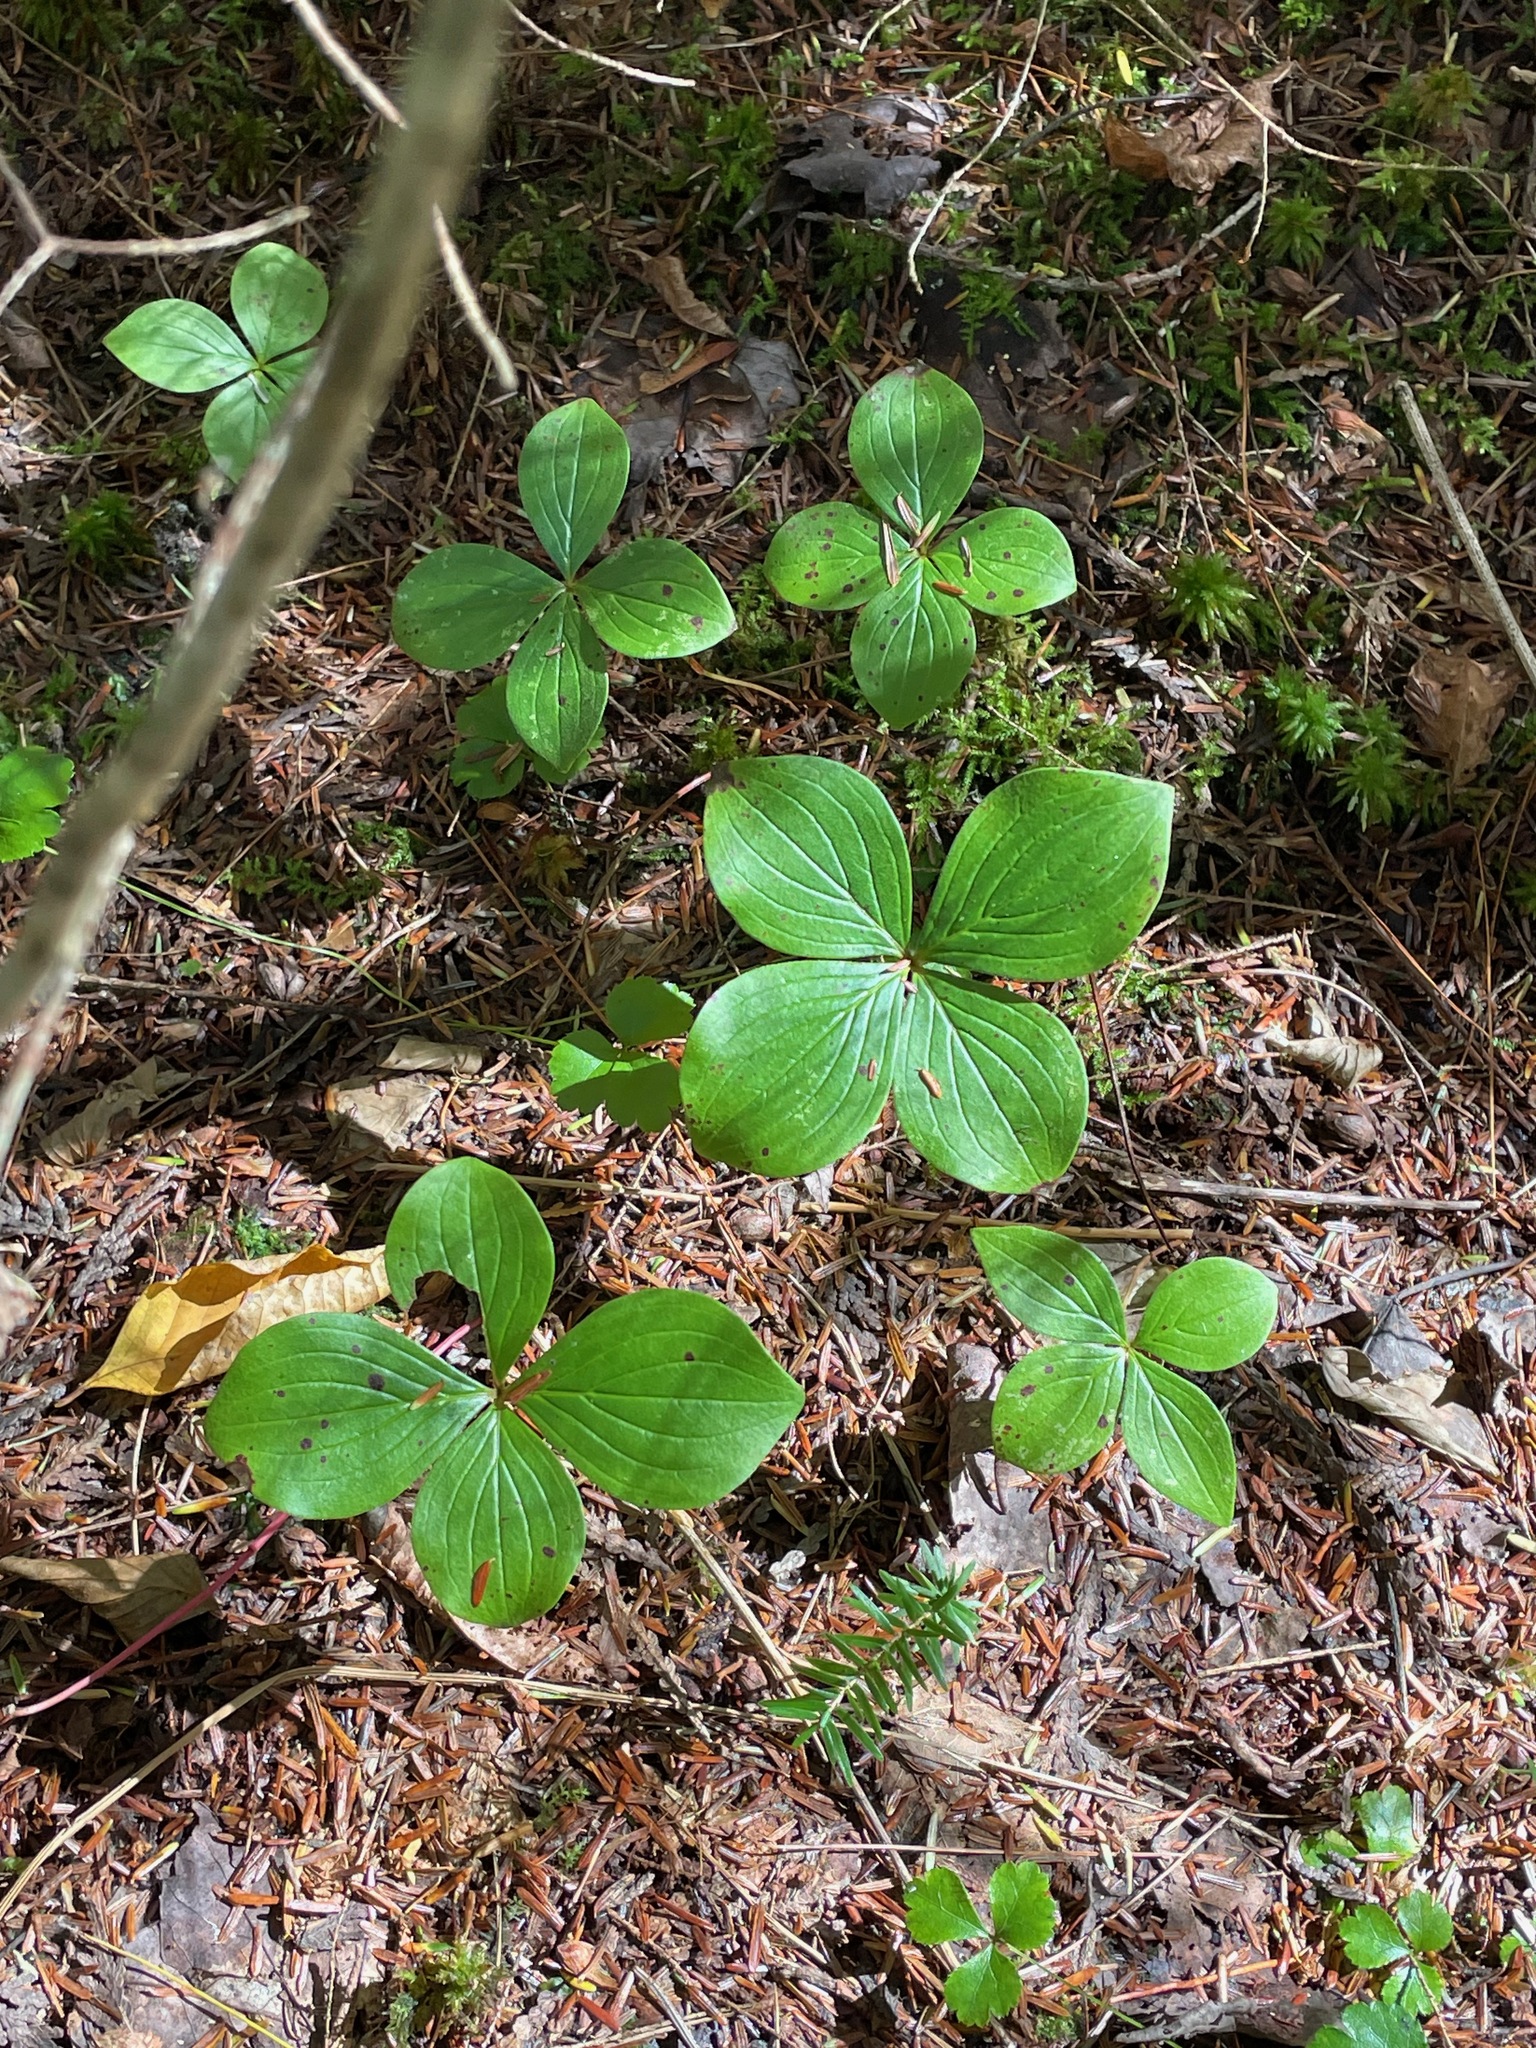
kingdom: Plantae
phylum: Tracheophyta
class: Magnoliopsida
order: Cornales
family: Cornaceae
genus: Cornus
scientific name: Cornus canadensis
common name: Creeping dogwood
